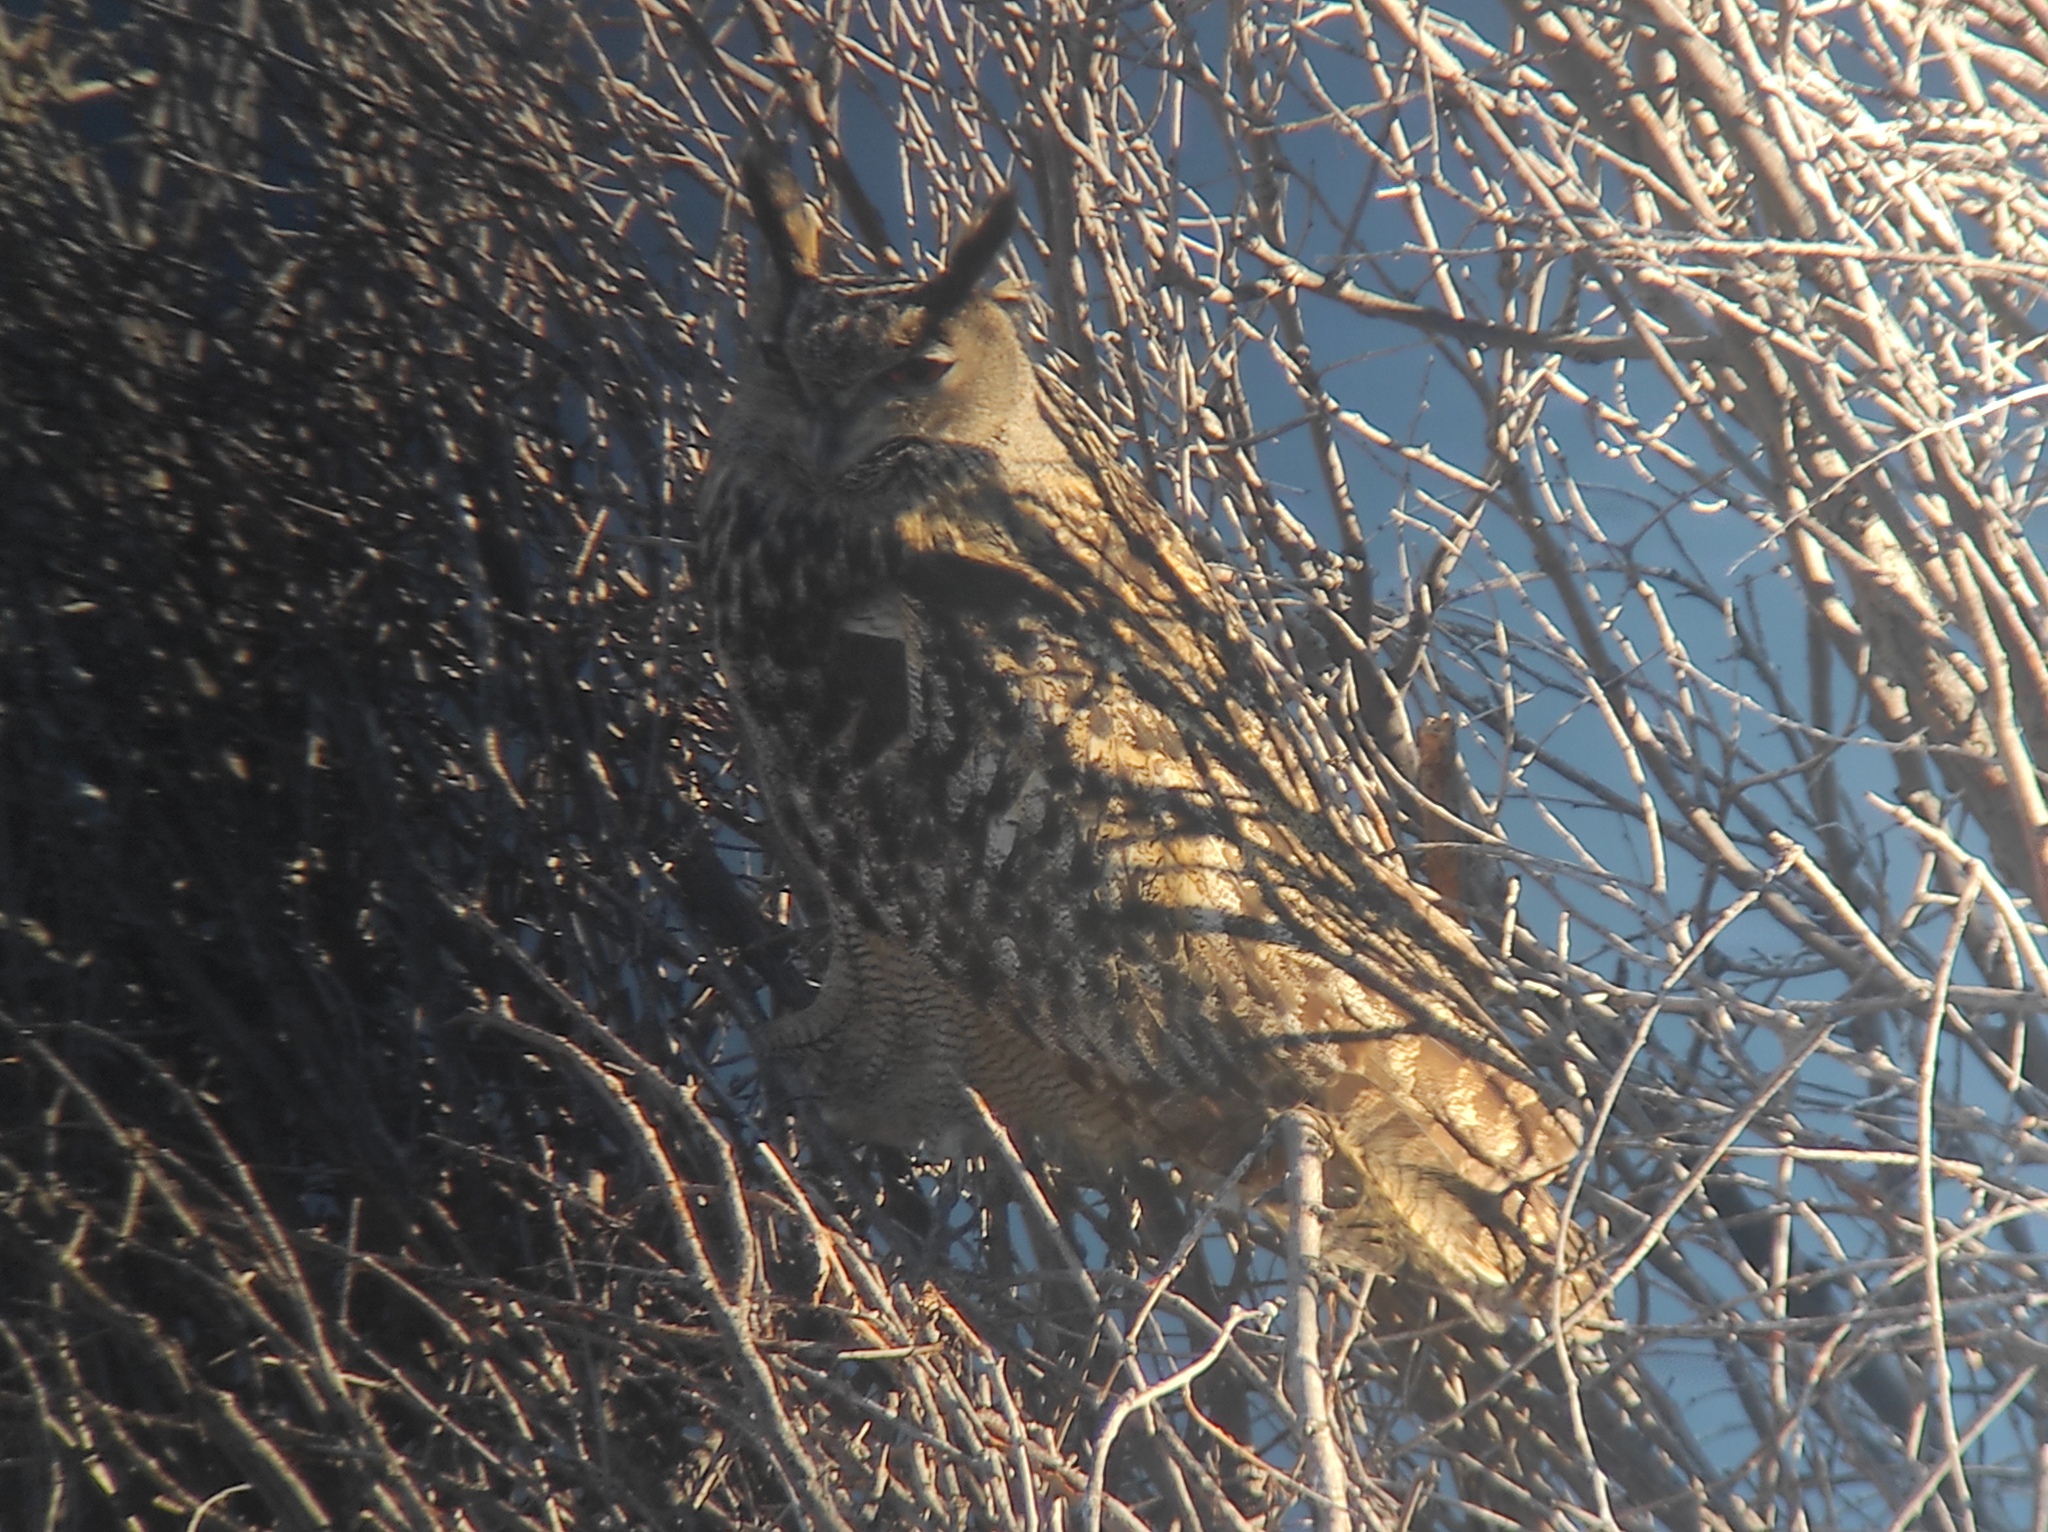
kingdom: Animalia
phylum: Chordata
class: Aves
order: Strigiformes
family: Strigidae
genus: Bubo
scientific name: Bubo bubo
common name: Eurasian eagle-owl
